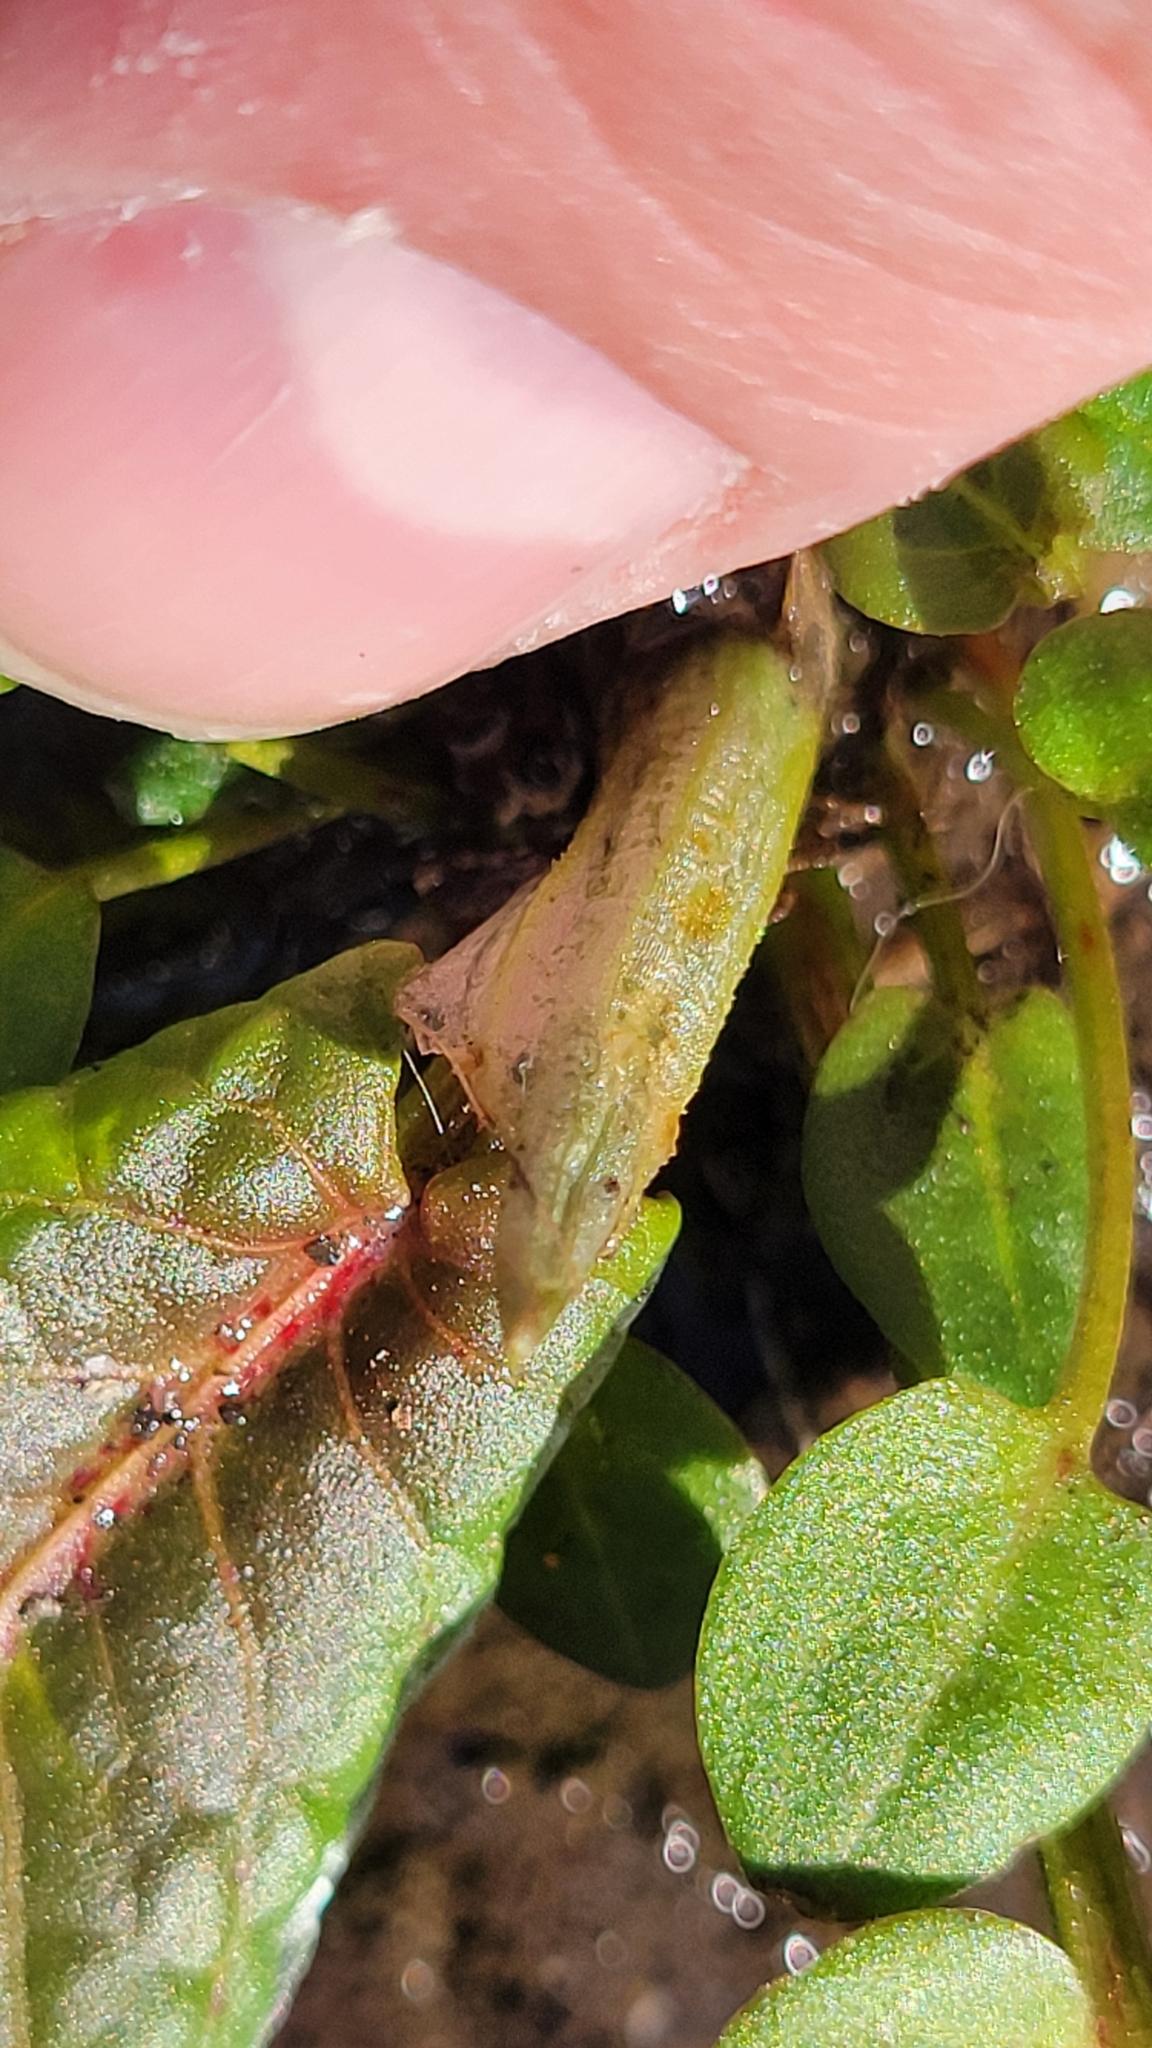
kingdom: Plantae
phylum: Tracheophyta
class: Magnoliopsida
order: Caryophyllales
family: Polygonaceae
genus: Rumex
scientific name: Rumex obtusifolius
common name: Bitter dock
